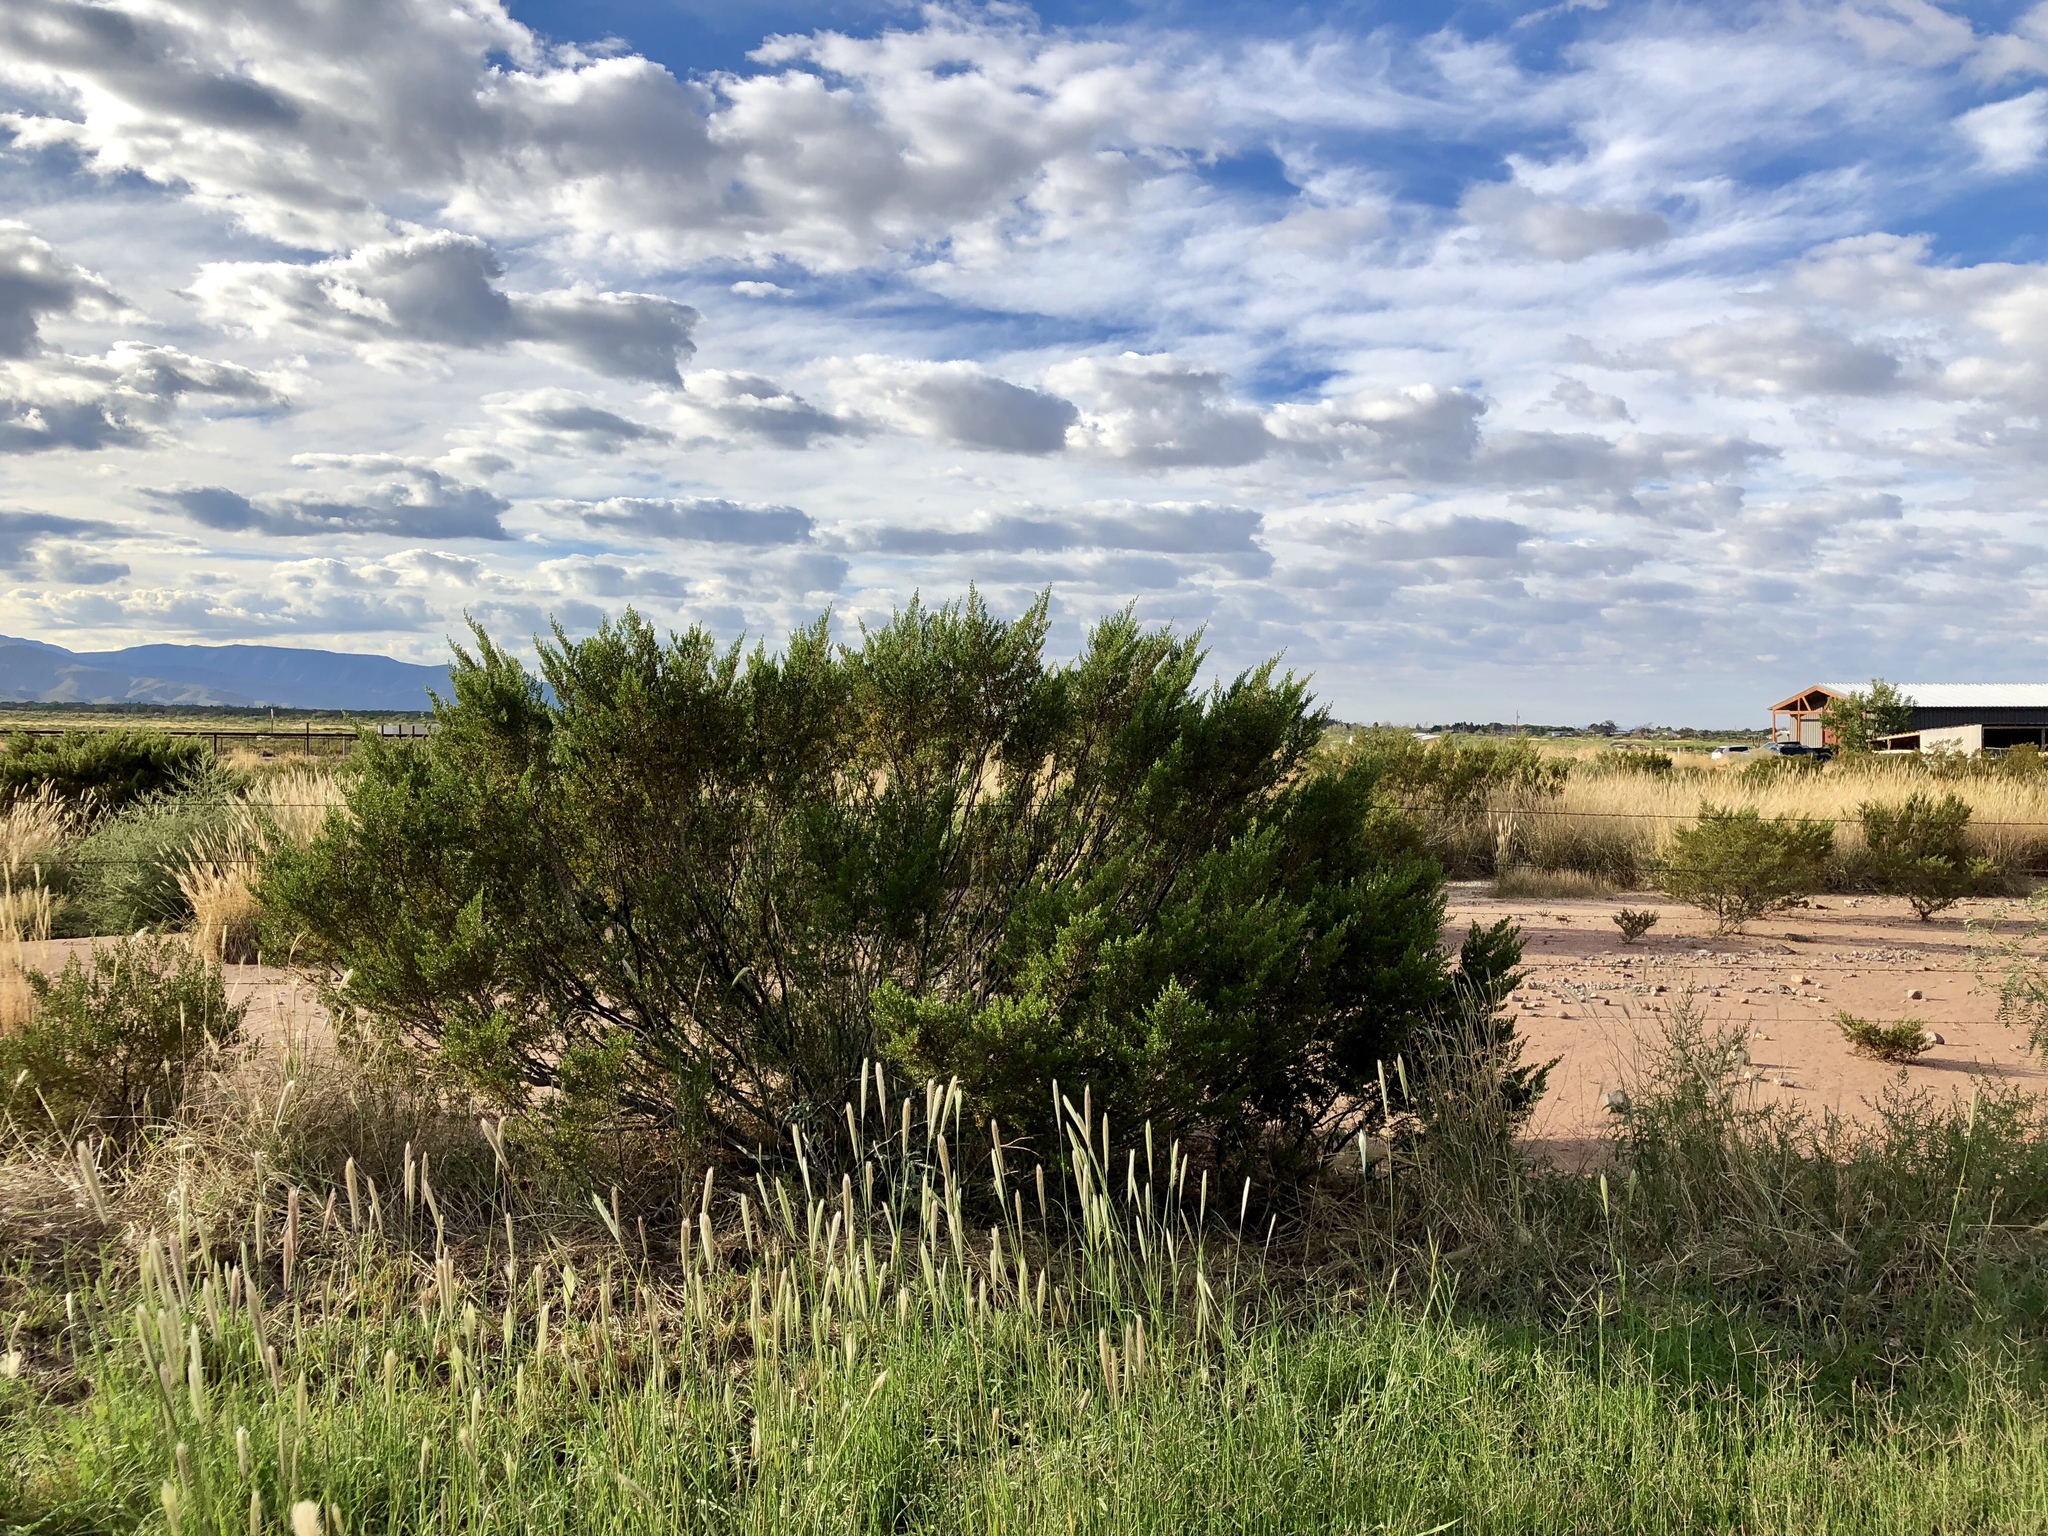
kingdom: Plantae
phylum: Tracheophyta
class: Magnoliopsida
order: Zygophyllales
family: Zygophyllaceae
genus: Larrea
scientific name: Larrea tridentata
